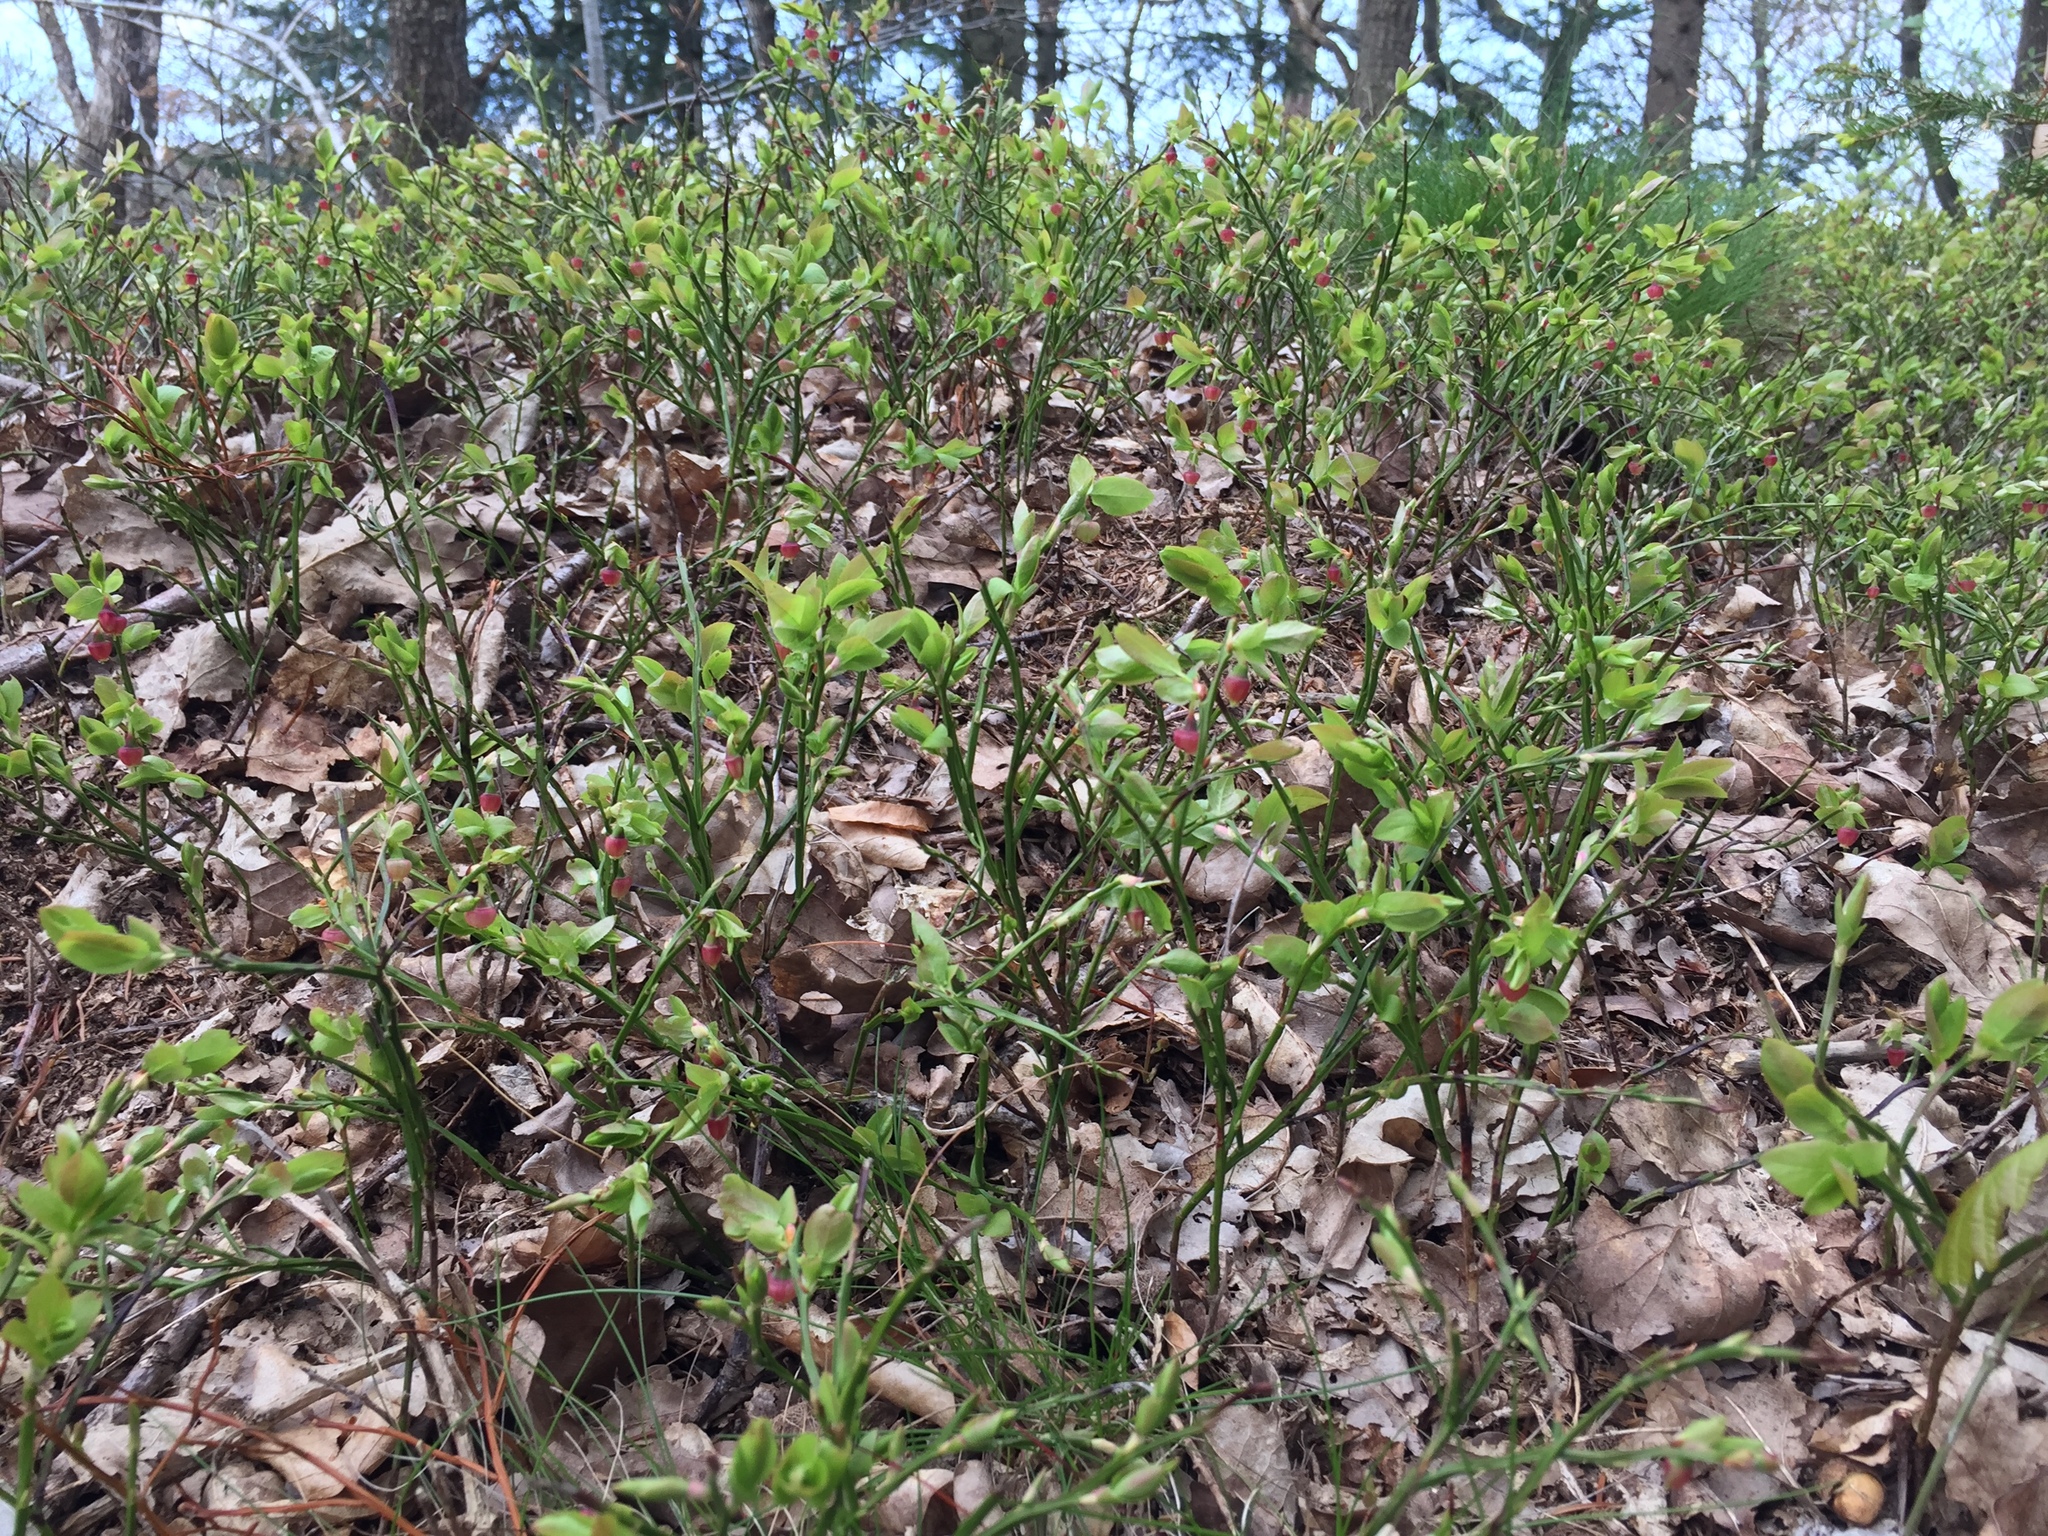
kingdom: Plantae
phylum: Tracheophyta
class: Magnoliopsida
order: Ericales
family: Ericaceae
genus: Vaccinium
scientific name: Vaccinium myrtillus
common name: Bilberry
